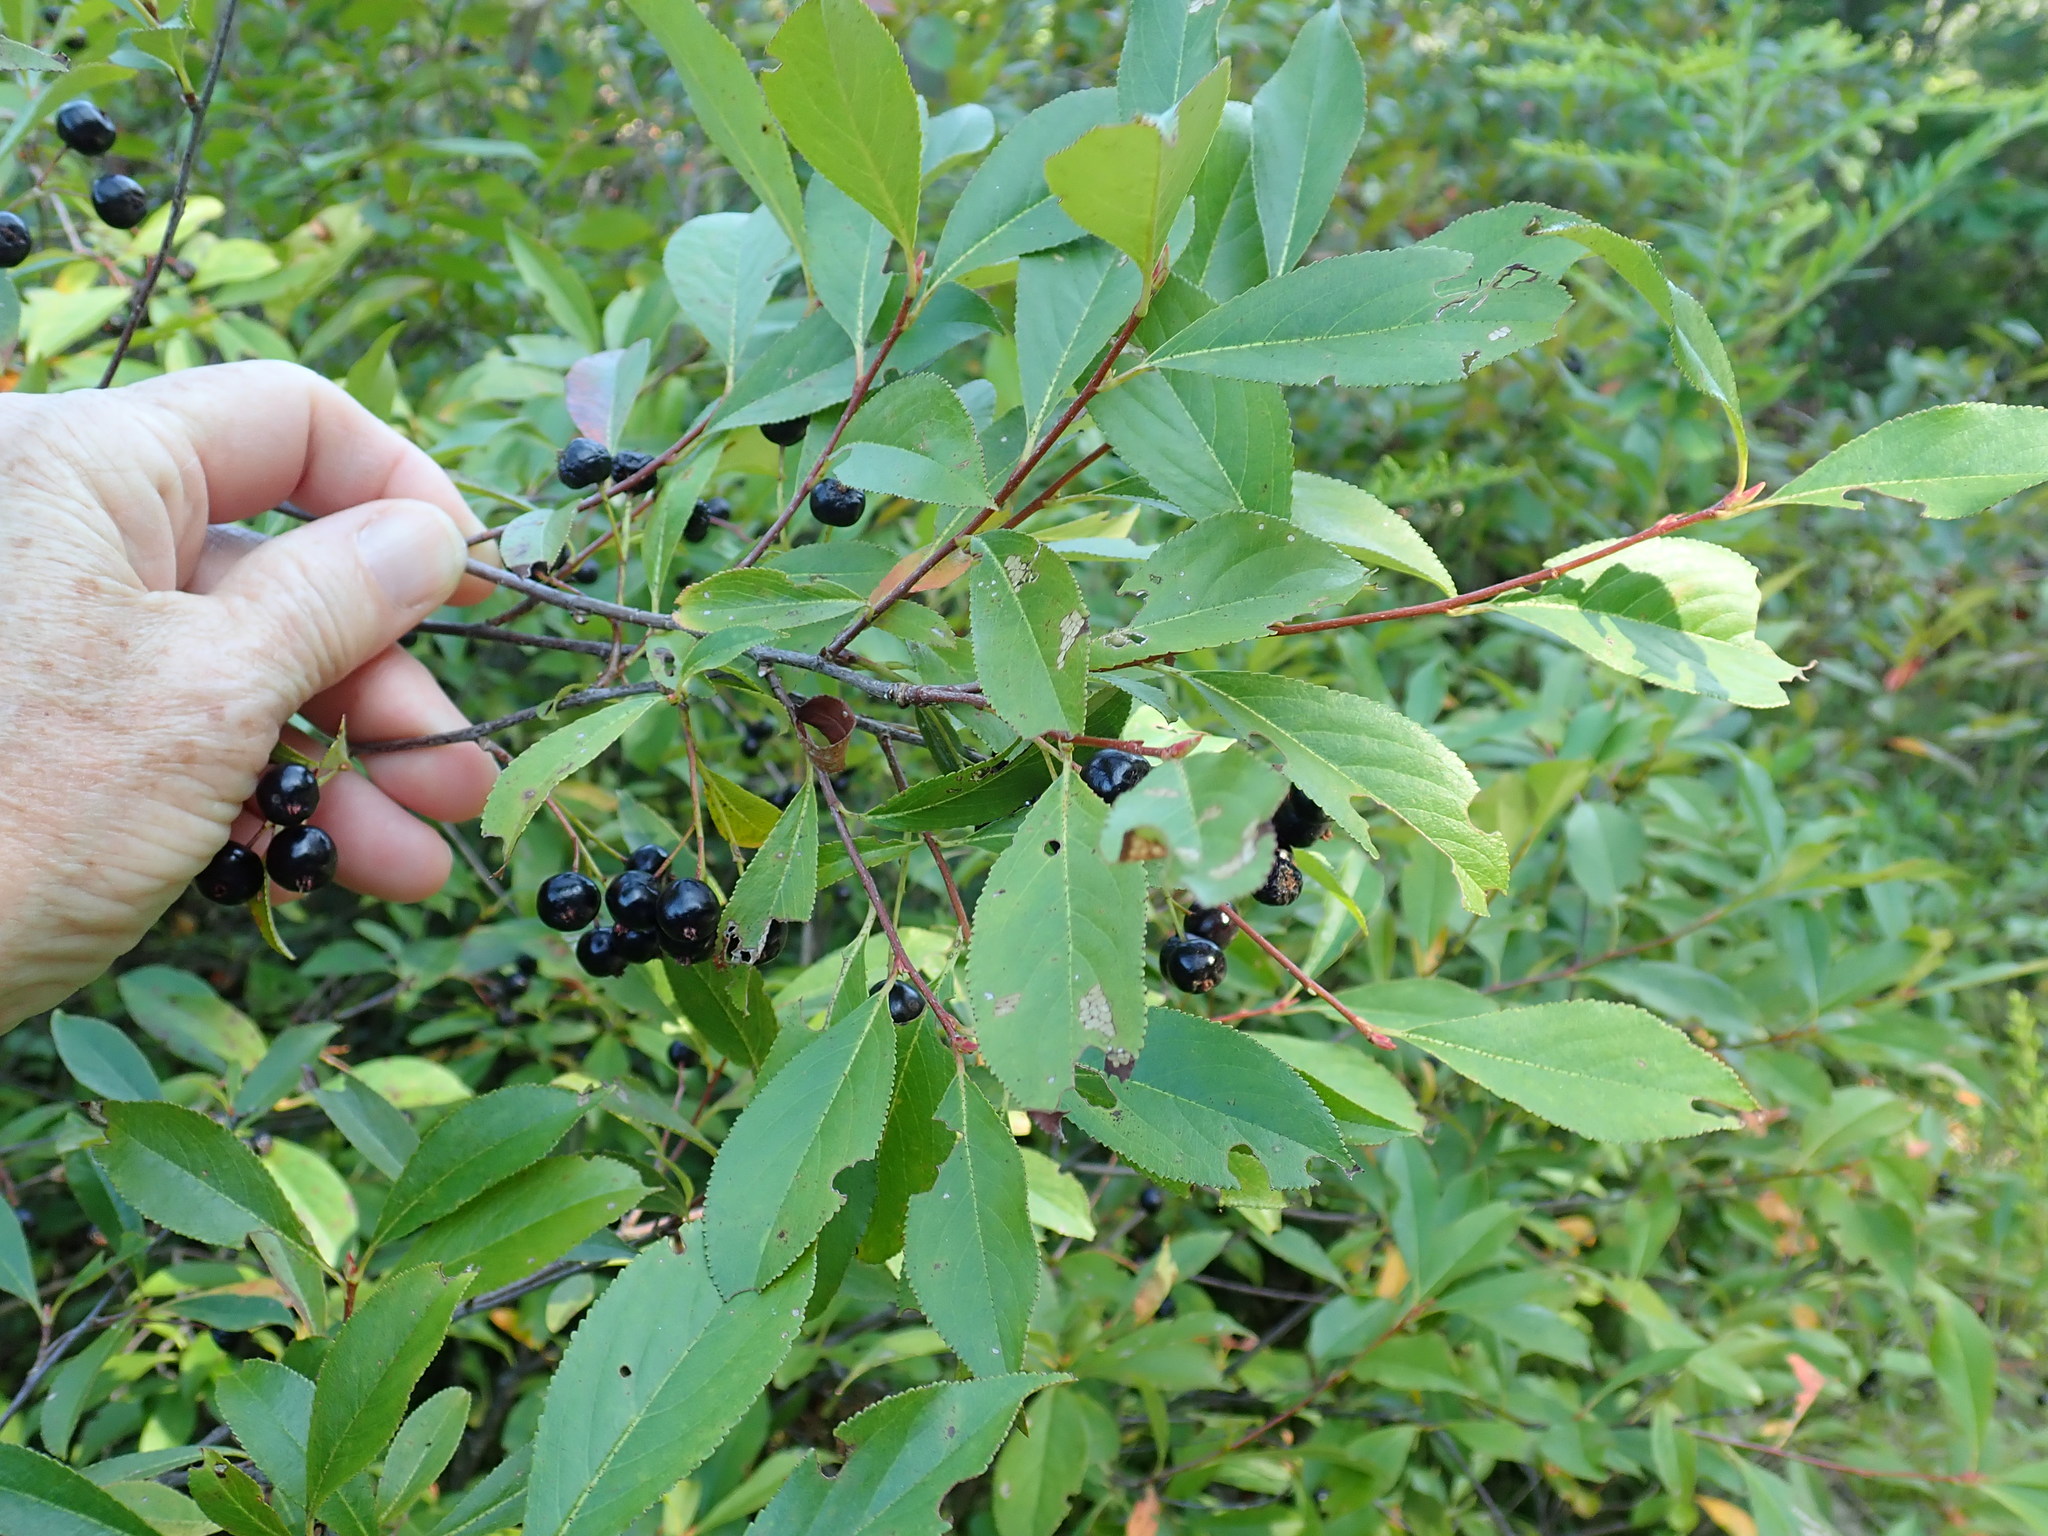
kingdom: Plantae
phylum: Tracheophyta
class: Magnoliopsida
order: Rosales
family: Rosaceae
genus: Aronia
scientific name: Aronia melanocarpa
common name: Black chokeberry
